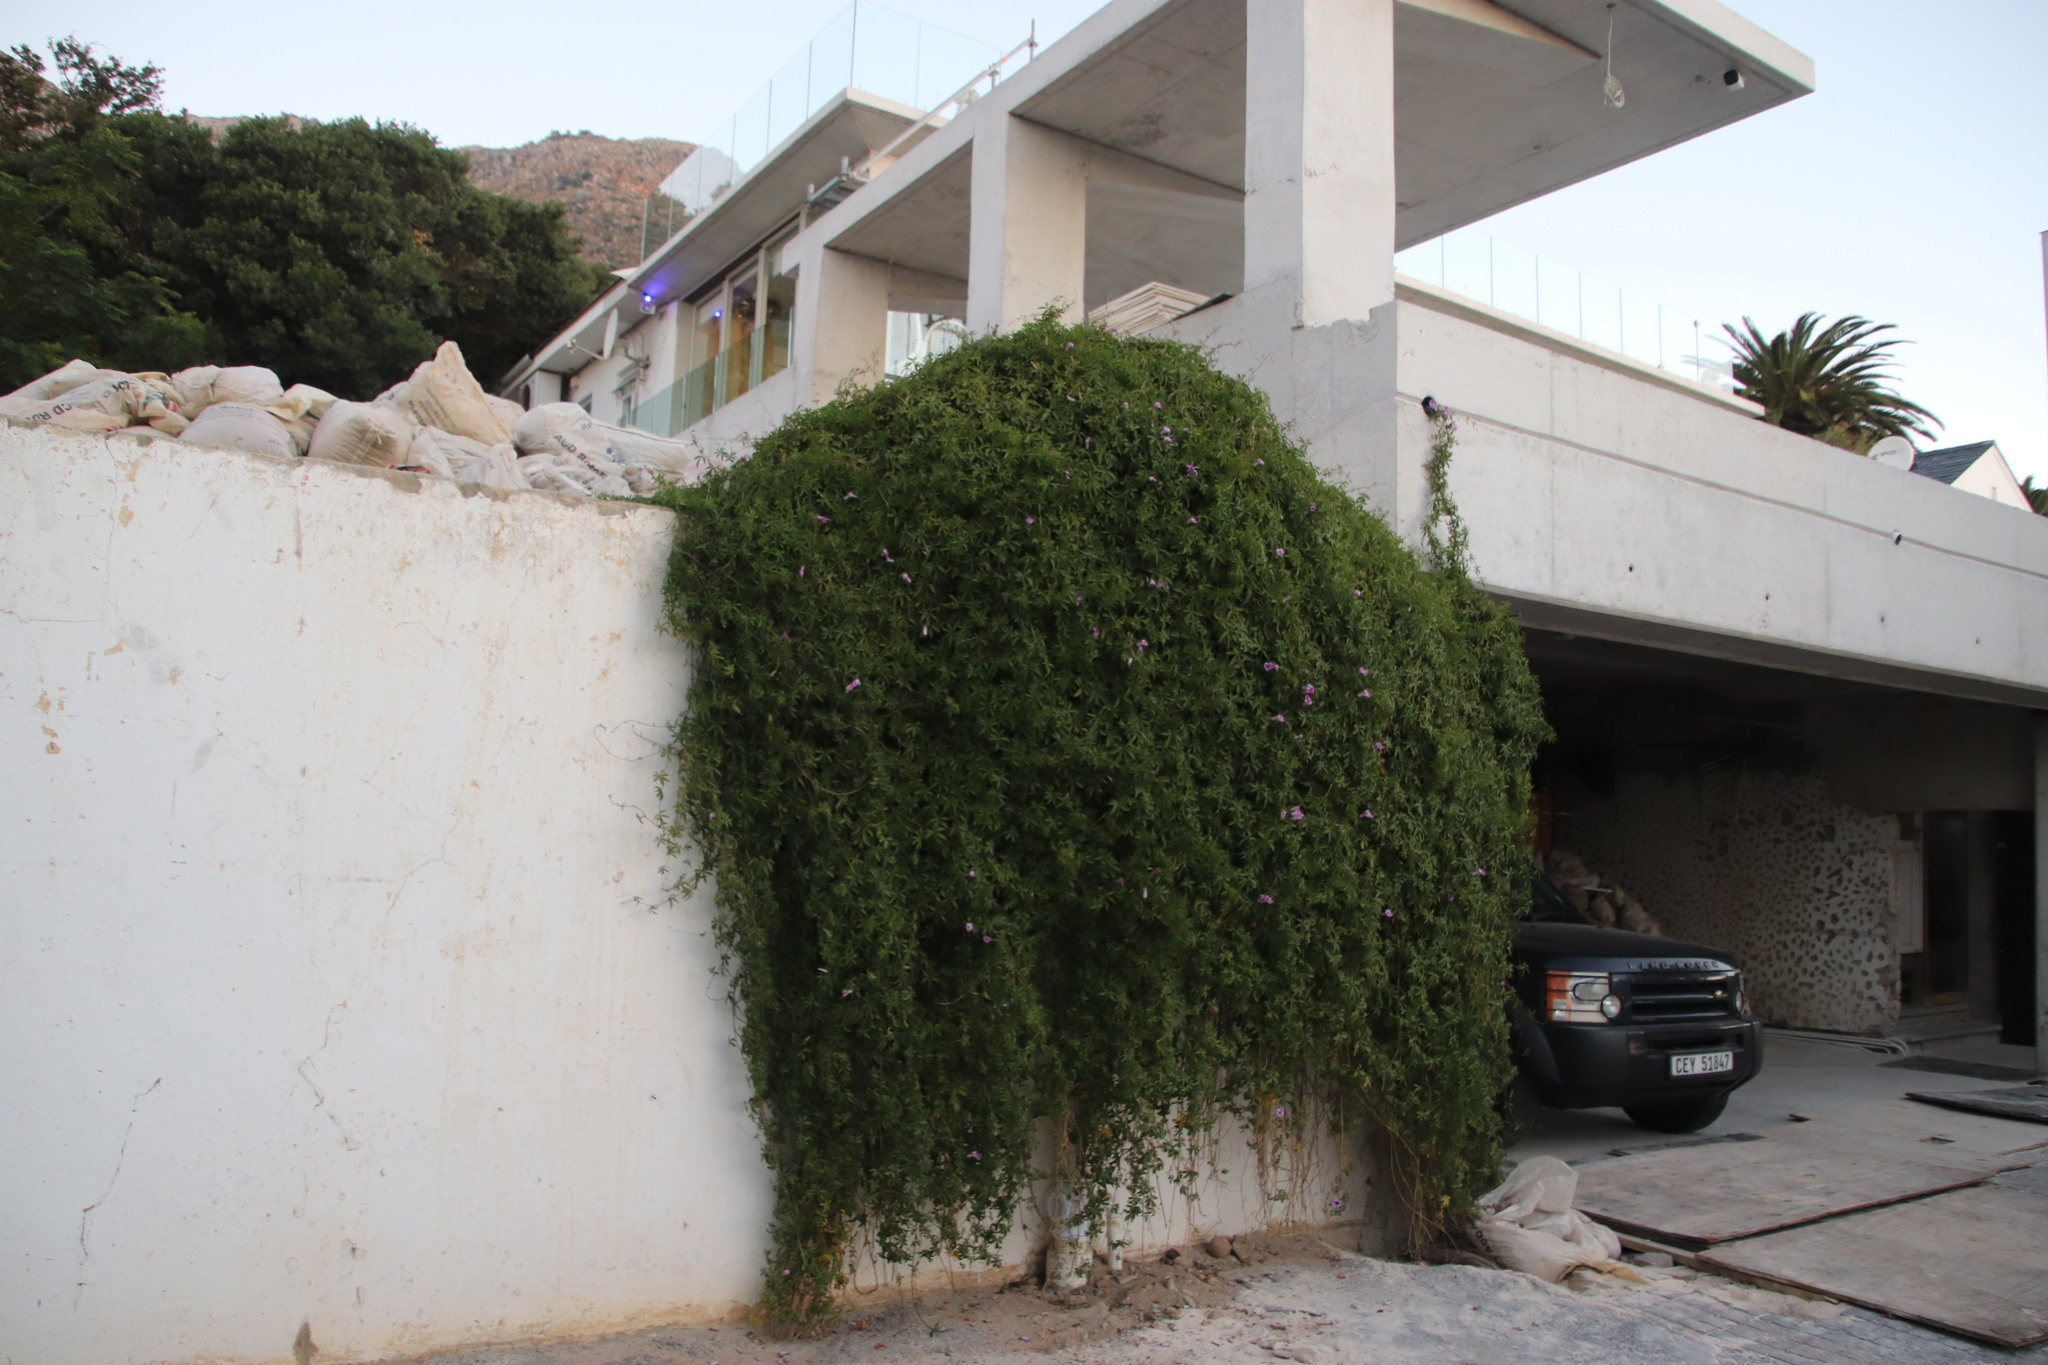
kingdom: Plantae
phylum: Tracheophyta
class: Magnoliopsida
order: Solanales
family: Convolvulaceae
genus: Ipomoea
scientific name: Ipomoea cairica
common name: Mile a minute vine
